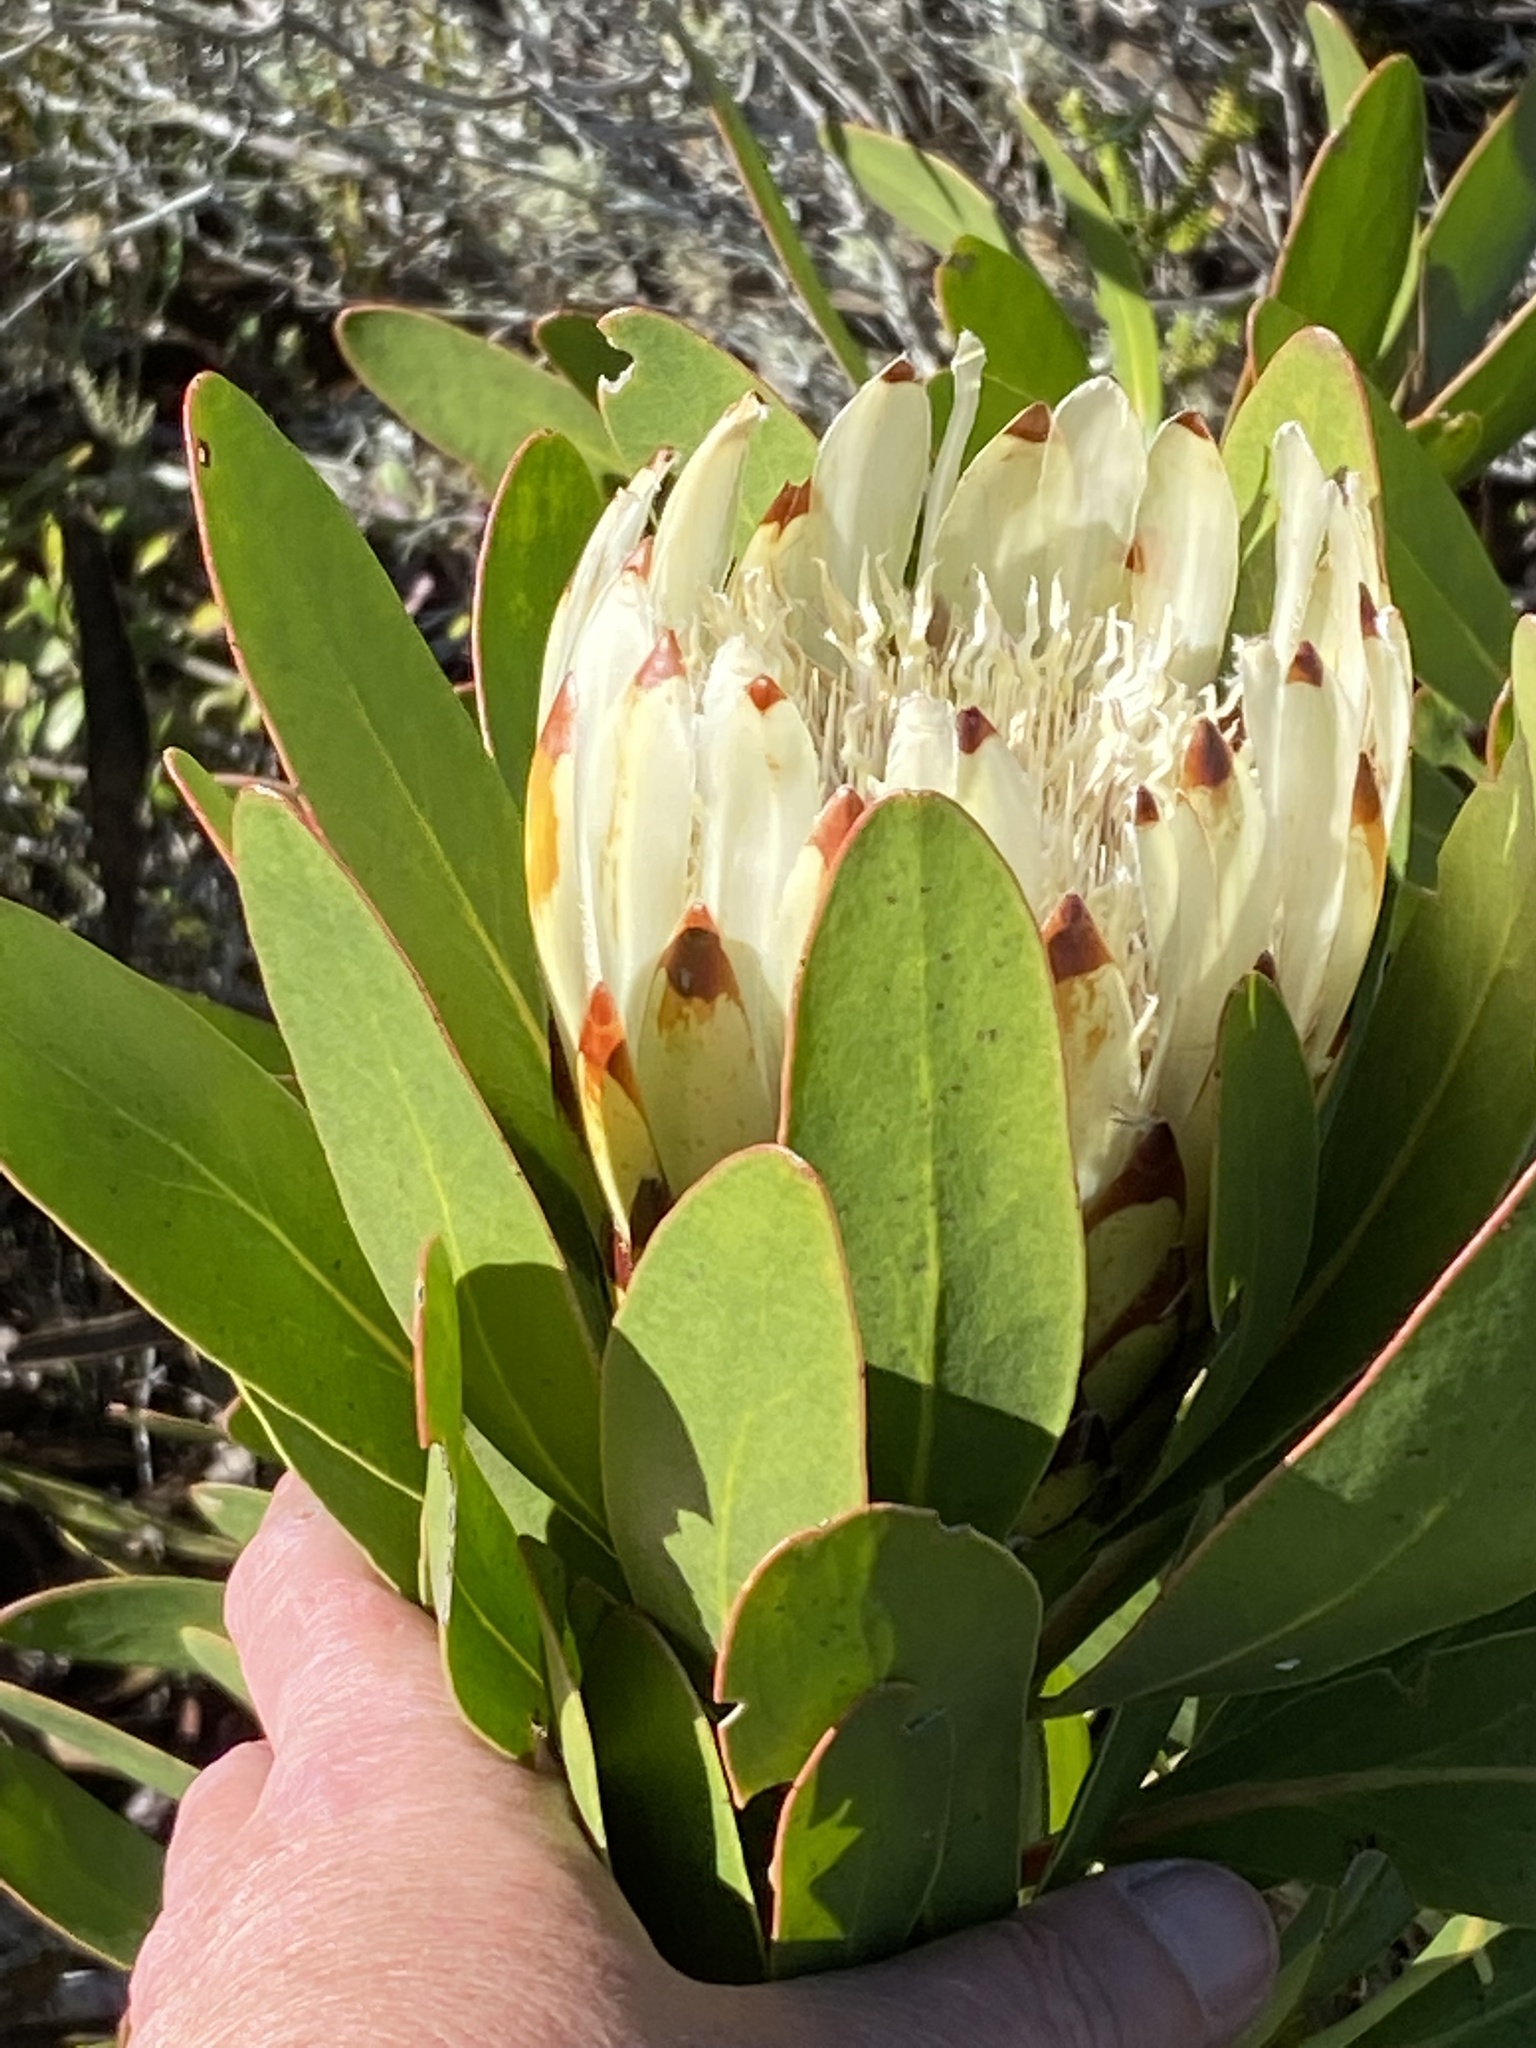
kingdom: Plantae
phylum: Tracheophyta
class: Magnoliopsida
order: Proteales
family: Proteaceae
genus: Protea
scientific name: Protea obtusifolia
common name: Bredasdorp sugarbush
